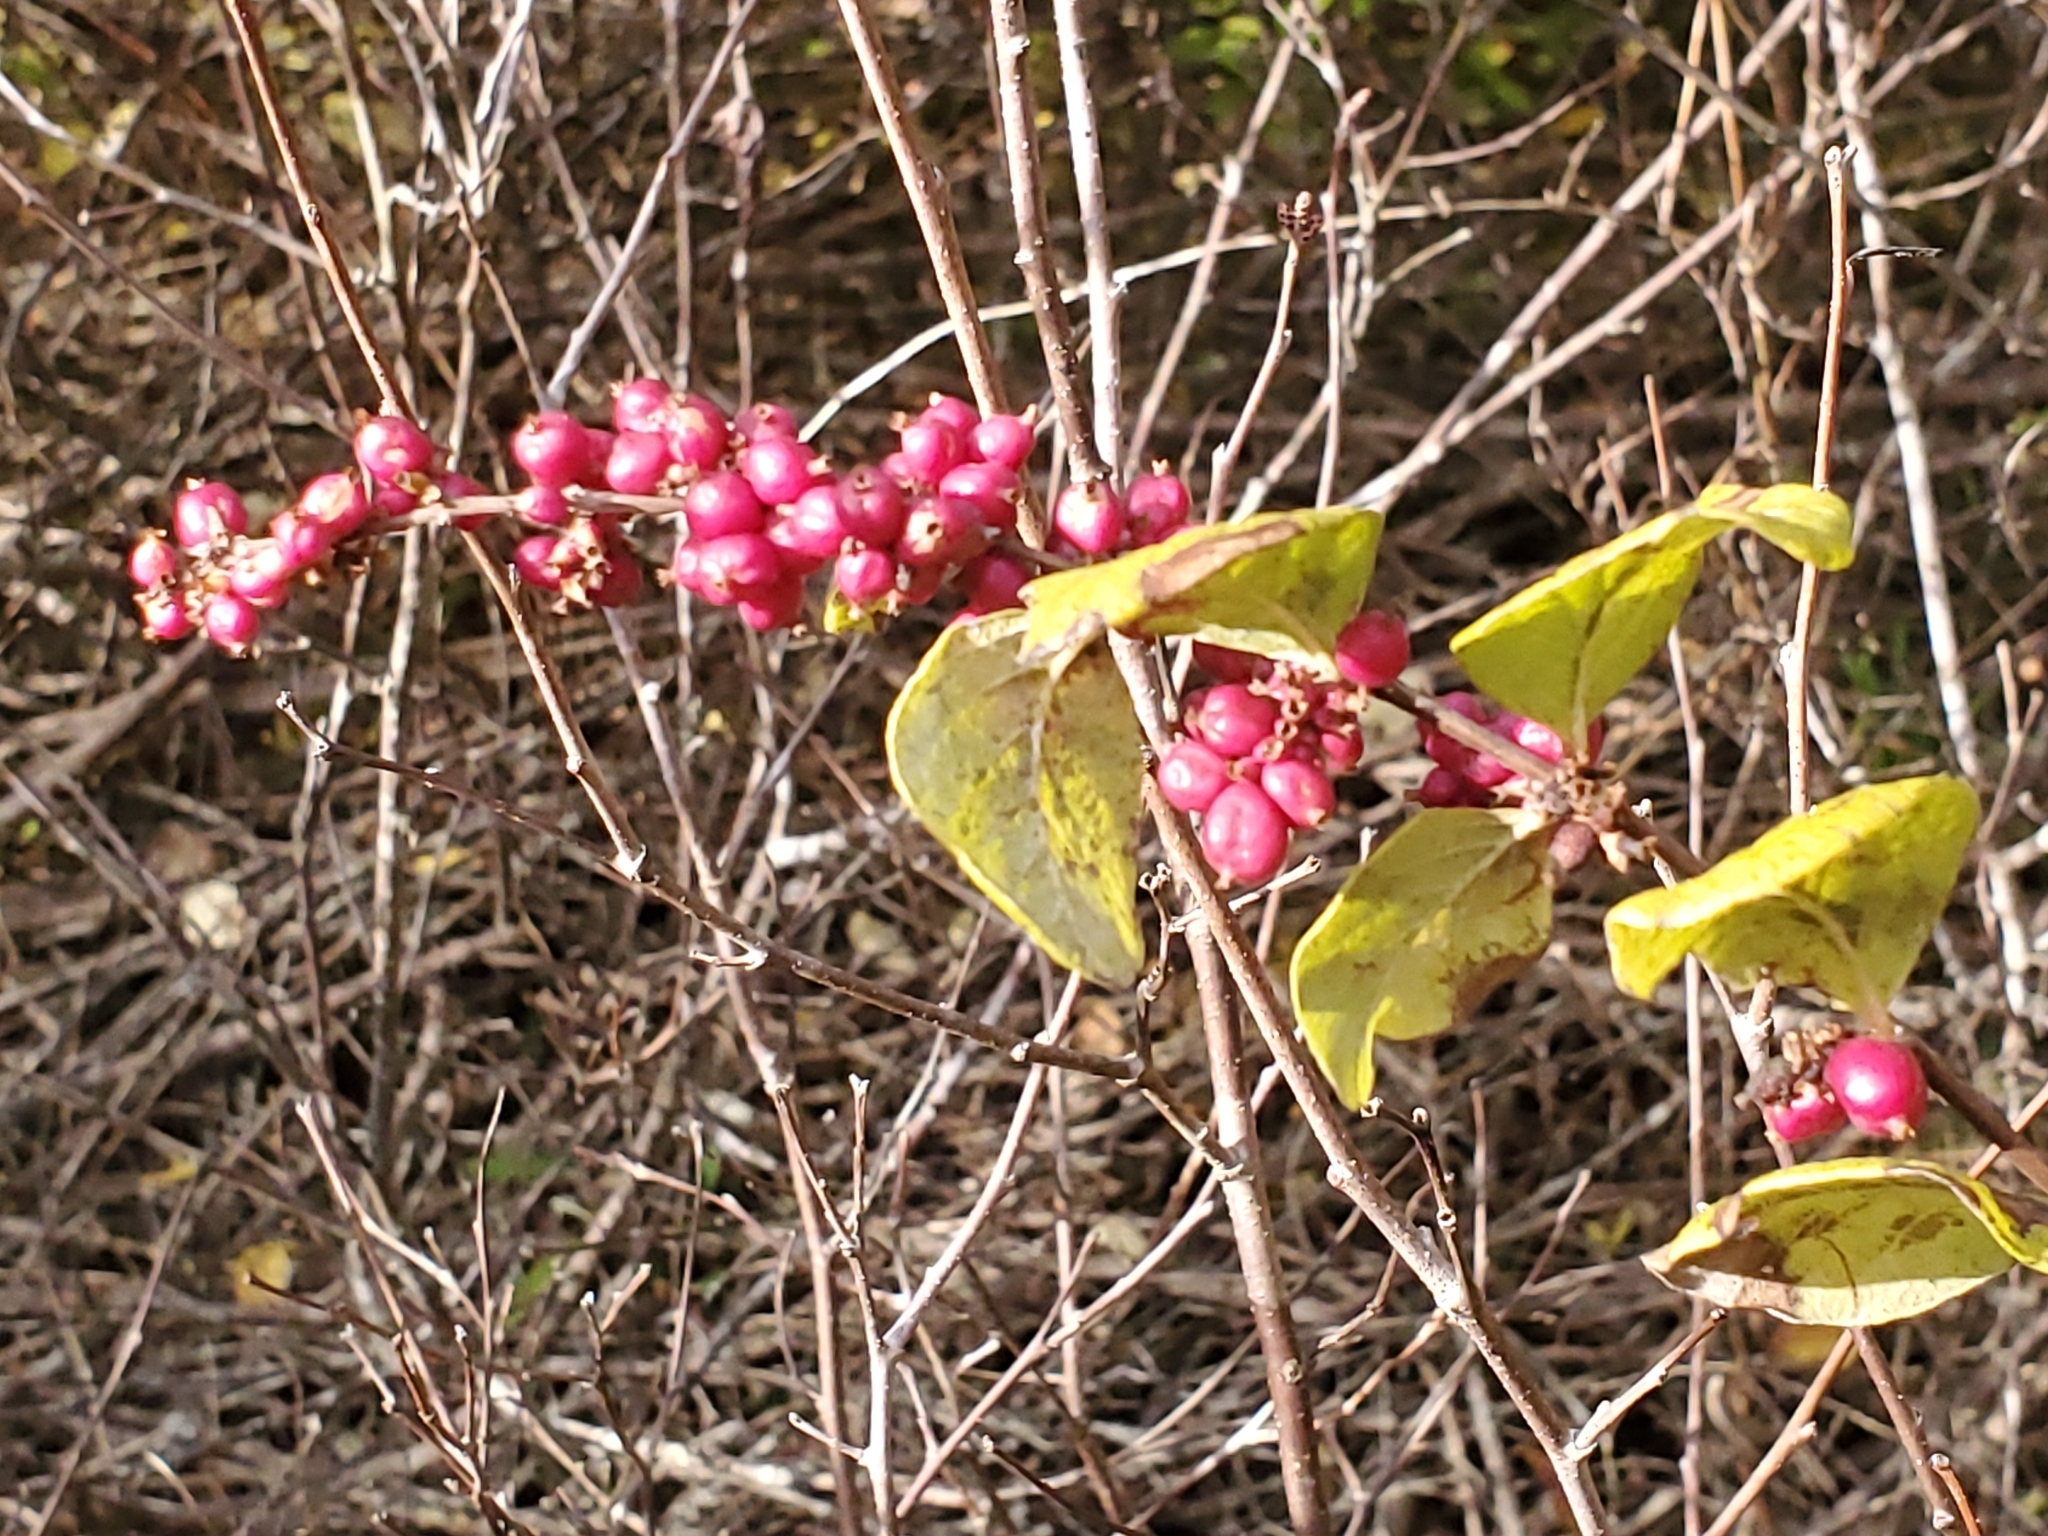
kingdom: Plantae
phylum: Tracheophyta
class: Magnoliopsida
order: Dipsacales
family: Caprifoliaceae
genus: Symphoricarpos
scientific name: Symphoricarpos orbiculatus
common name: Coralberry
